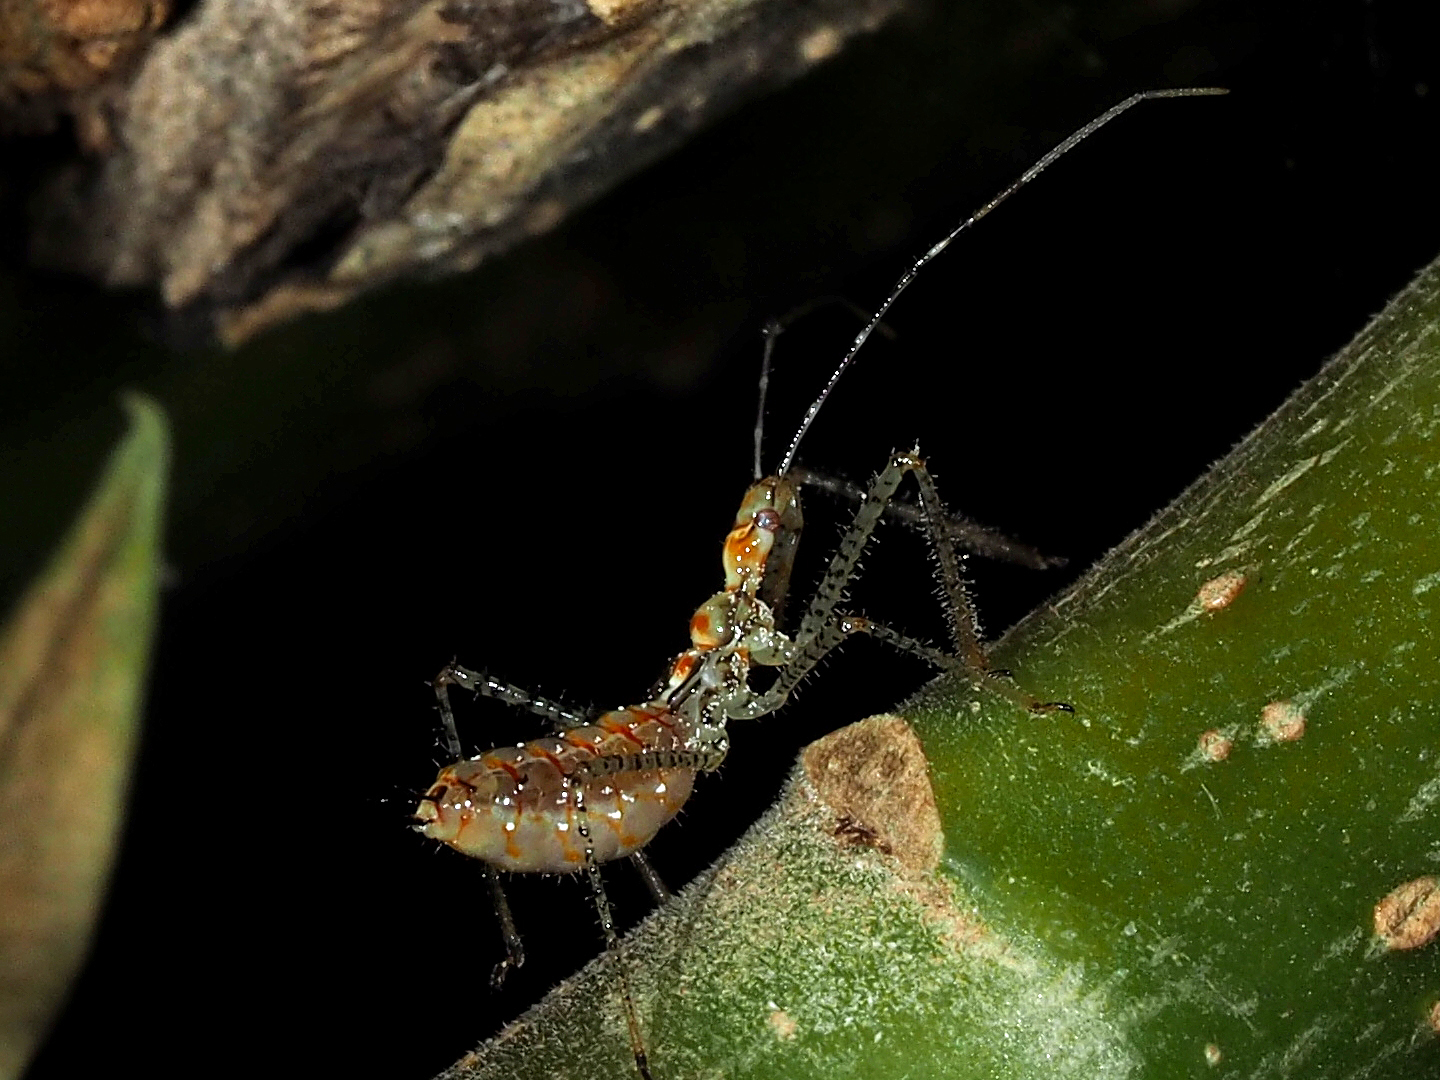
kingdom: Animalia
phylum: Arthropoda
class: Insecta
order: Hemiptera
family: Reduviidae
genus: Zelus
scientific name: Zelus renardii
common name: Assassin bug
